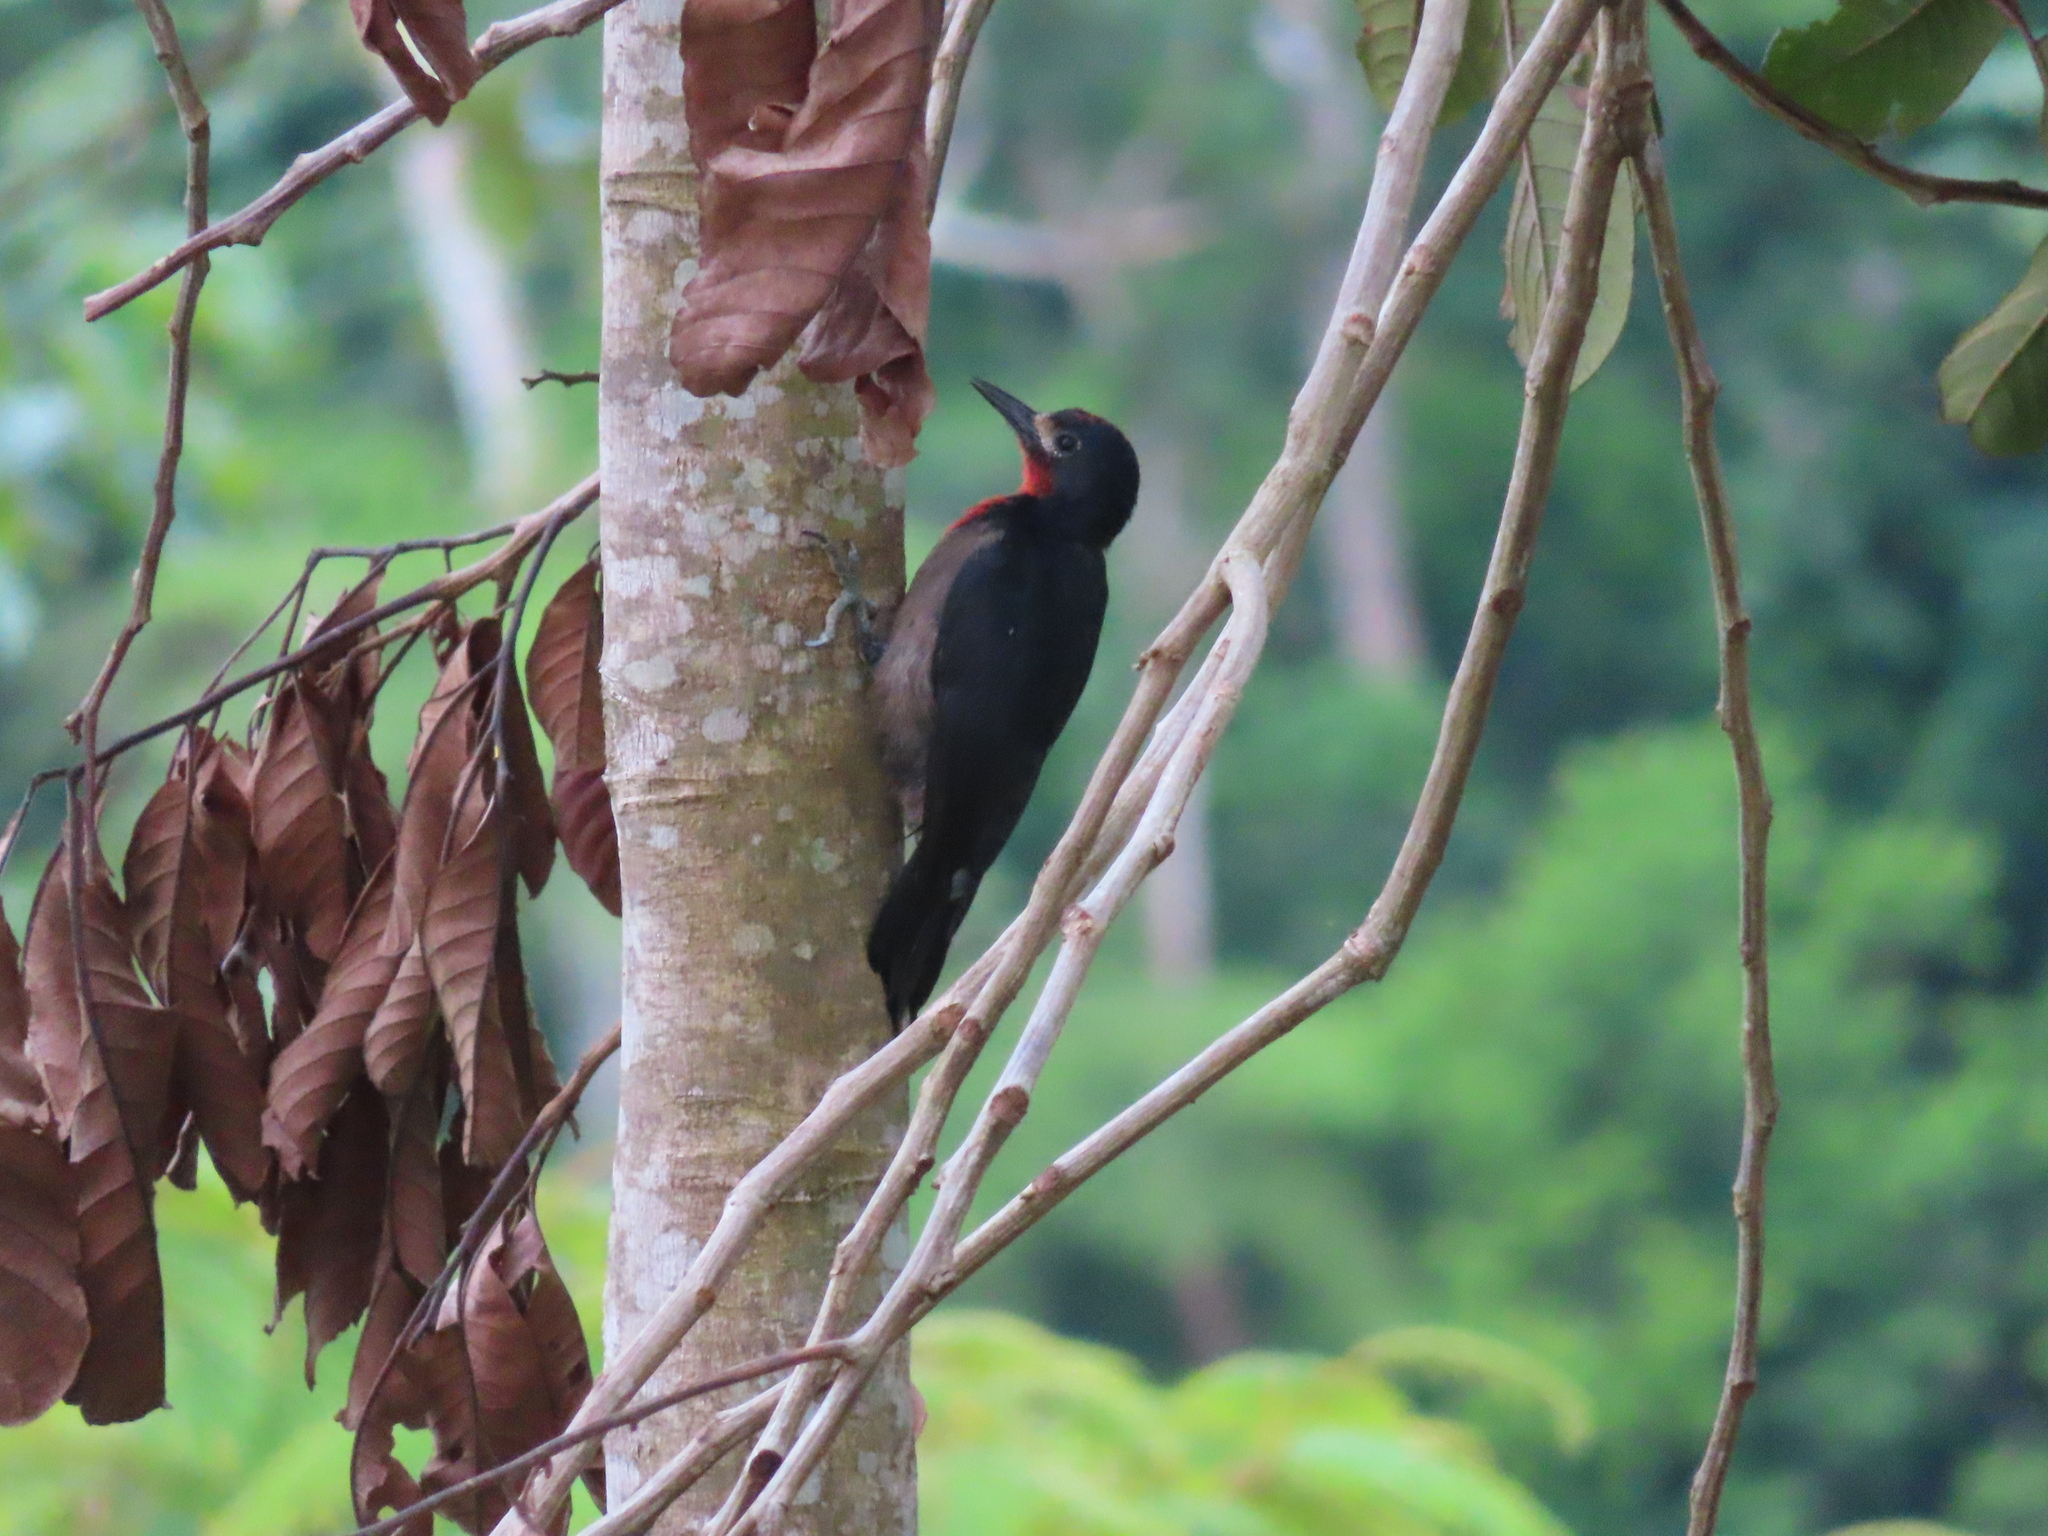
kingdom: Animalia
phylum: Chordata
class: Aves
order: Piciformes
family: Picidae
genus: Melanerpes
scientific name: Melanerpes portoricensis
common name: Puerto rican woodpecker
